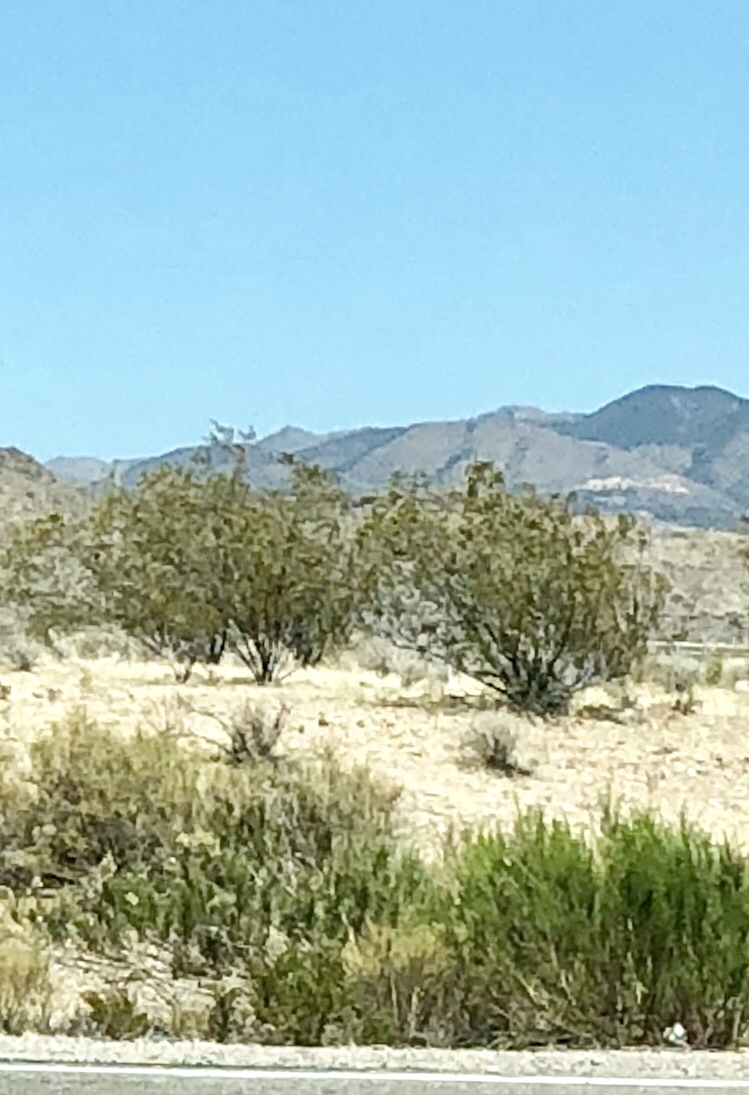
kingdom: Plantae
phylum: Tracheophyta
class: Magnoliopsida
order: Zygophyllales
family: Zygophyllaceae
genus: Larrea
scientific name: Larrea tridentata
